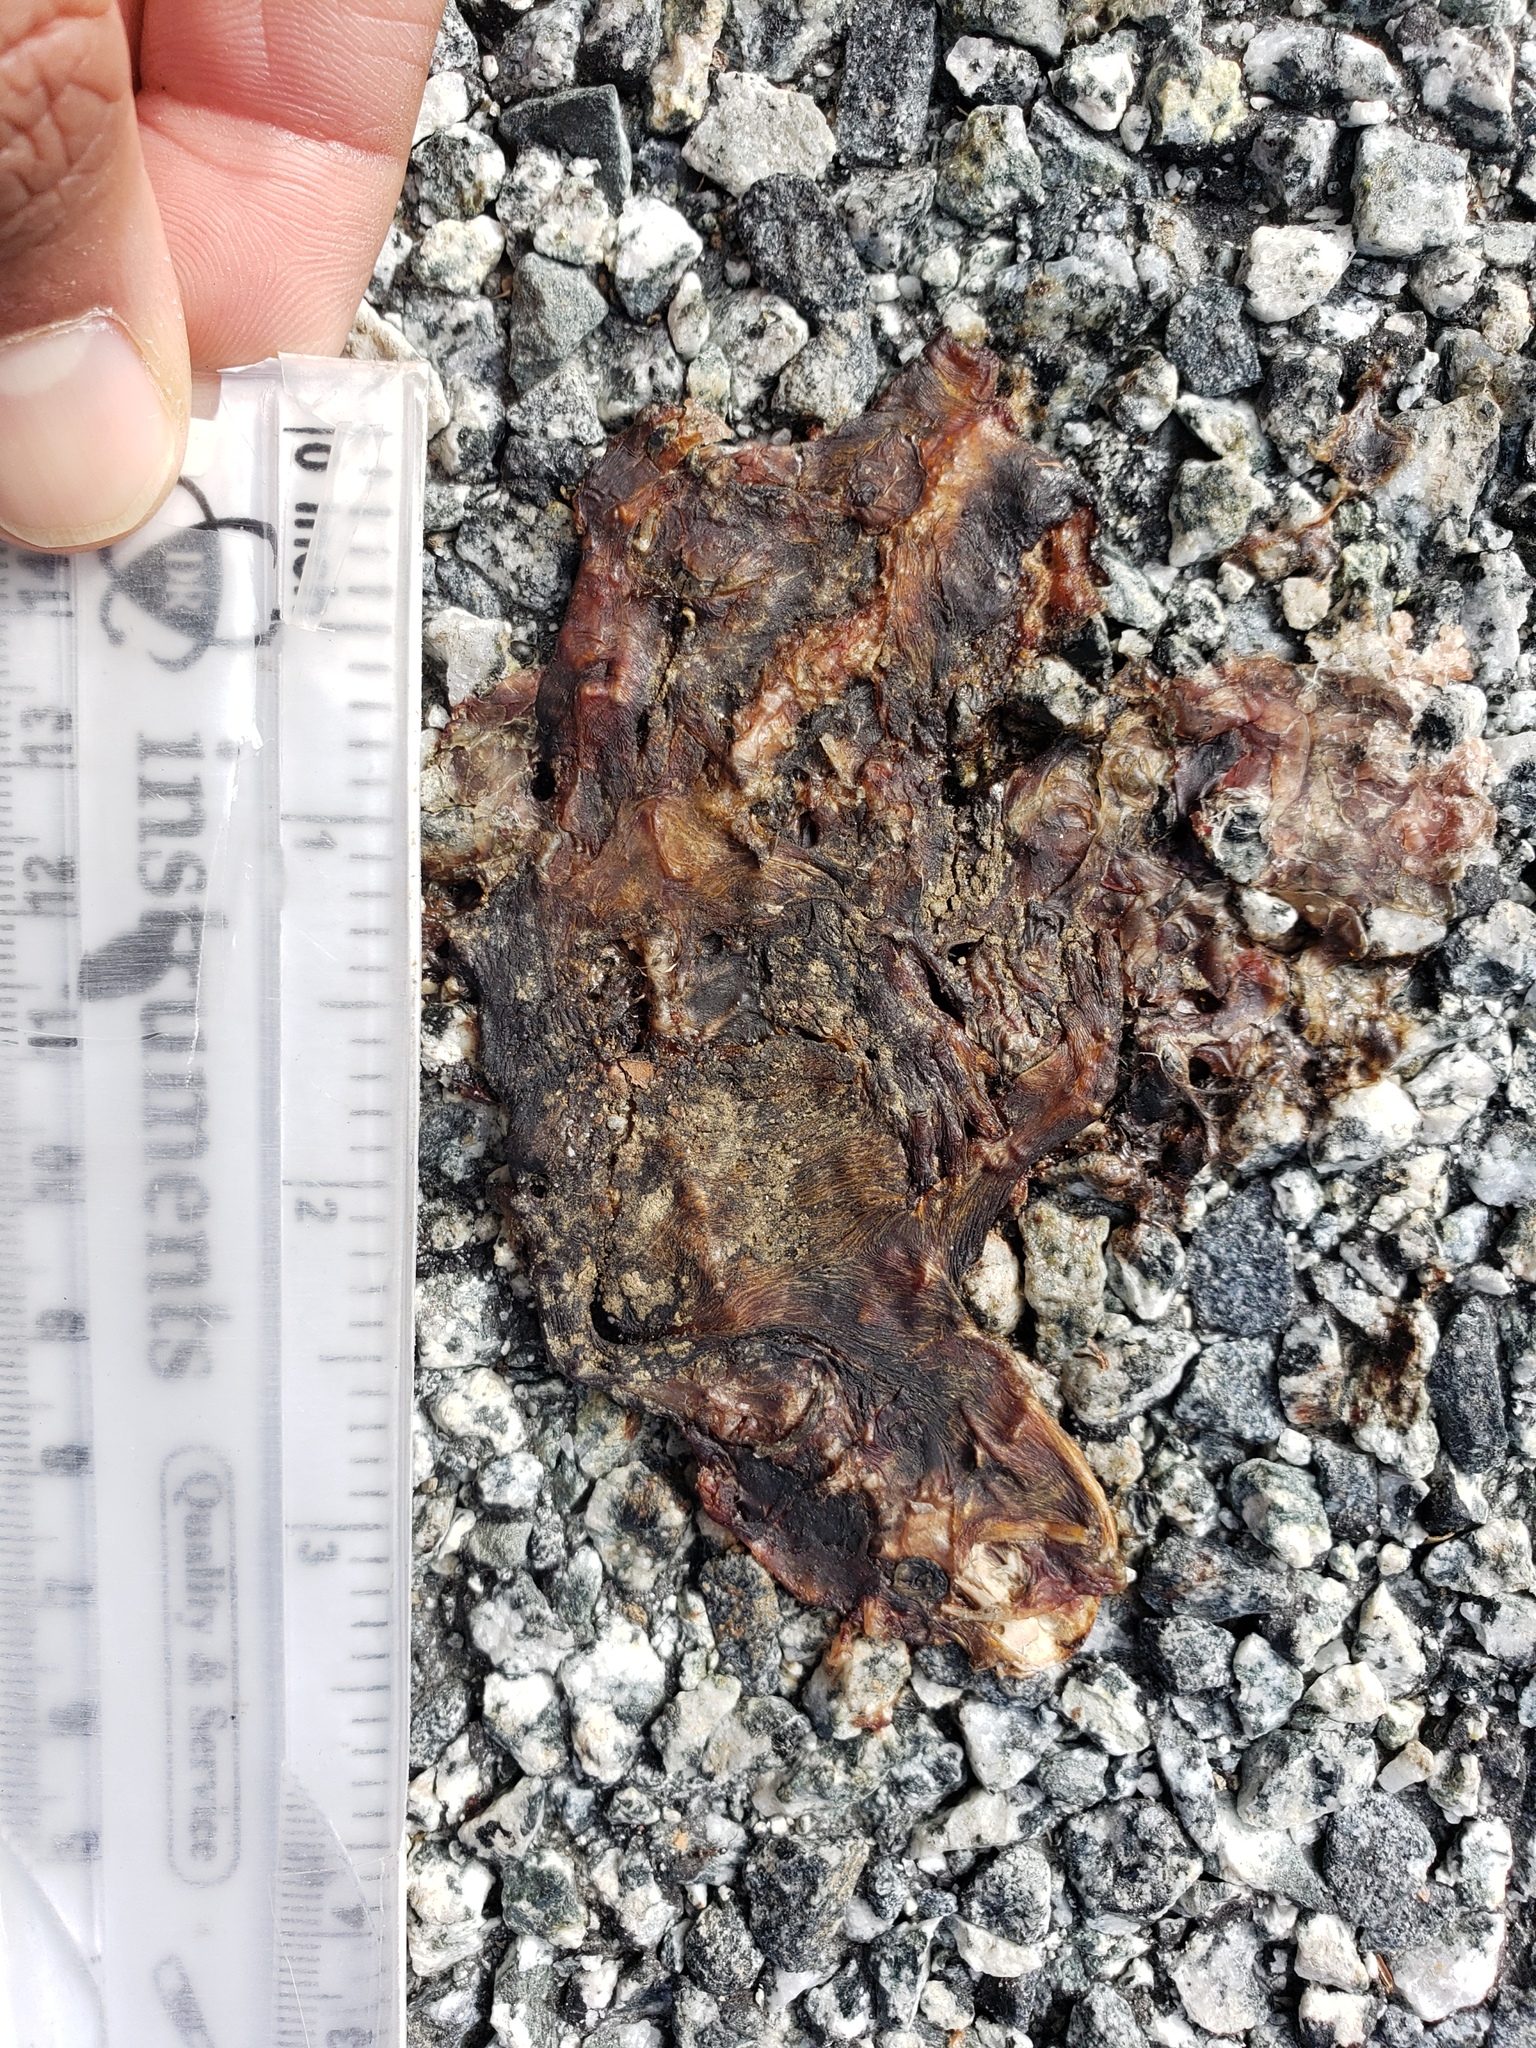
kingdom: Animalia
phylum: Chordata
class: Amphibia
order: Caudata
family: Salamandridae
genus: Taricha
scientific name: Taricha
